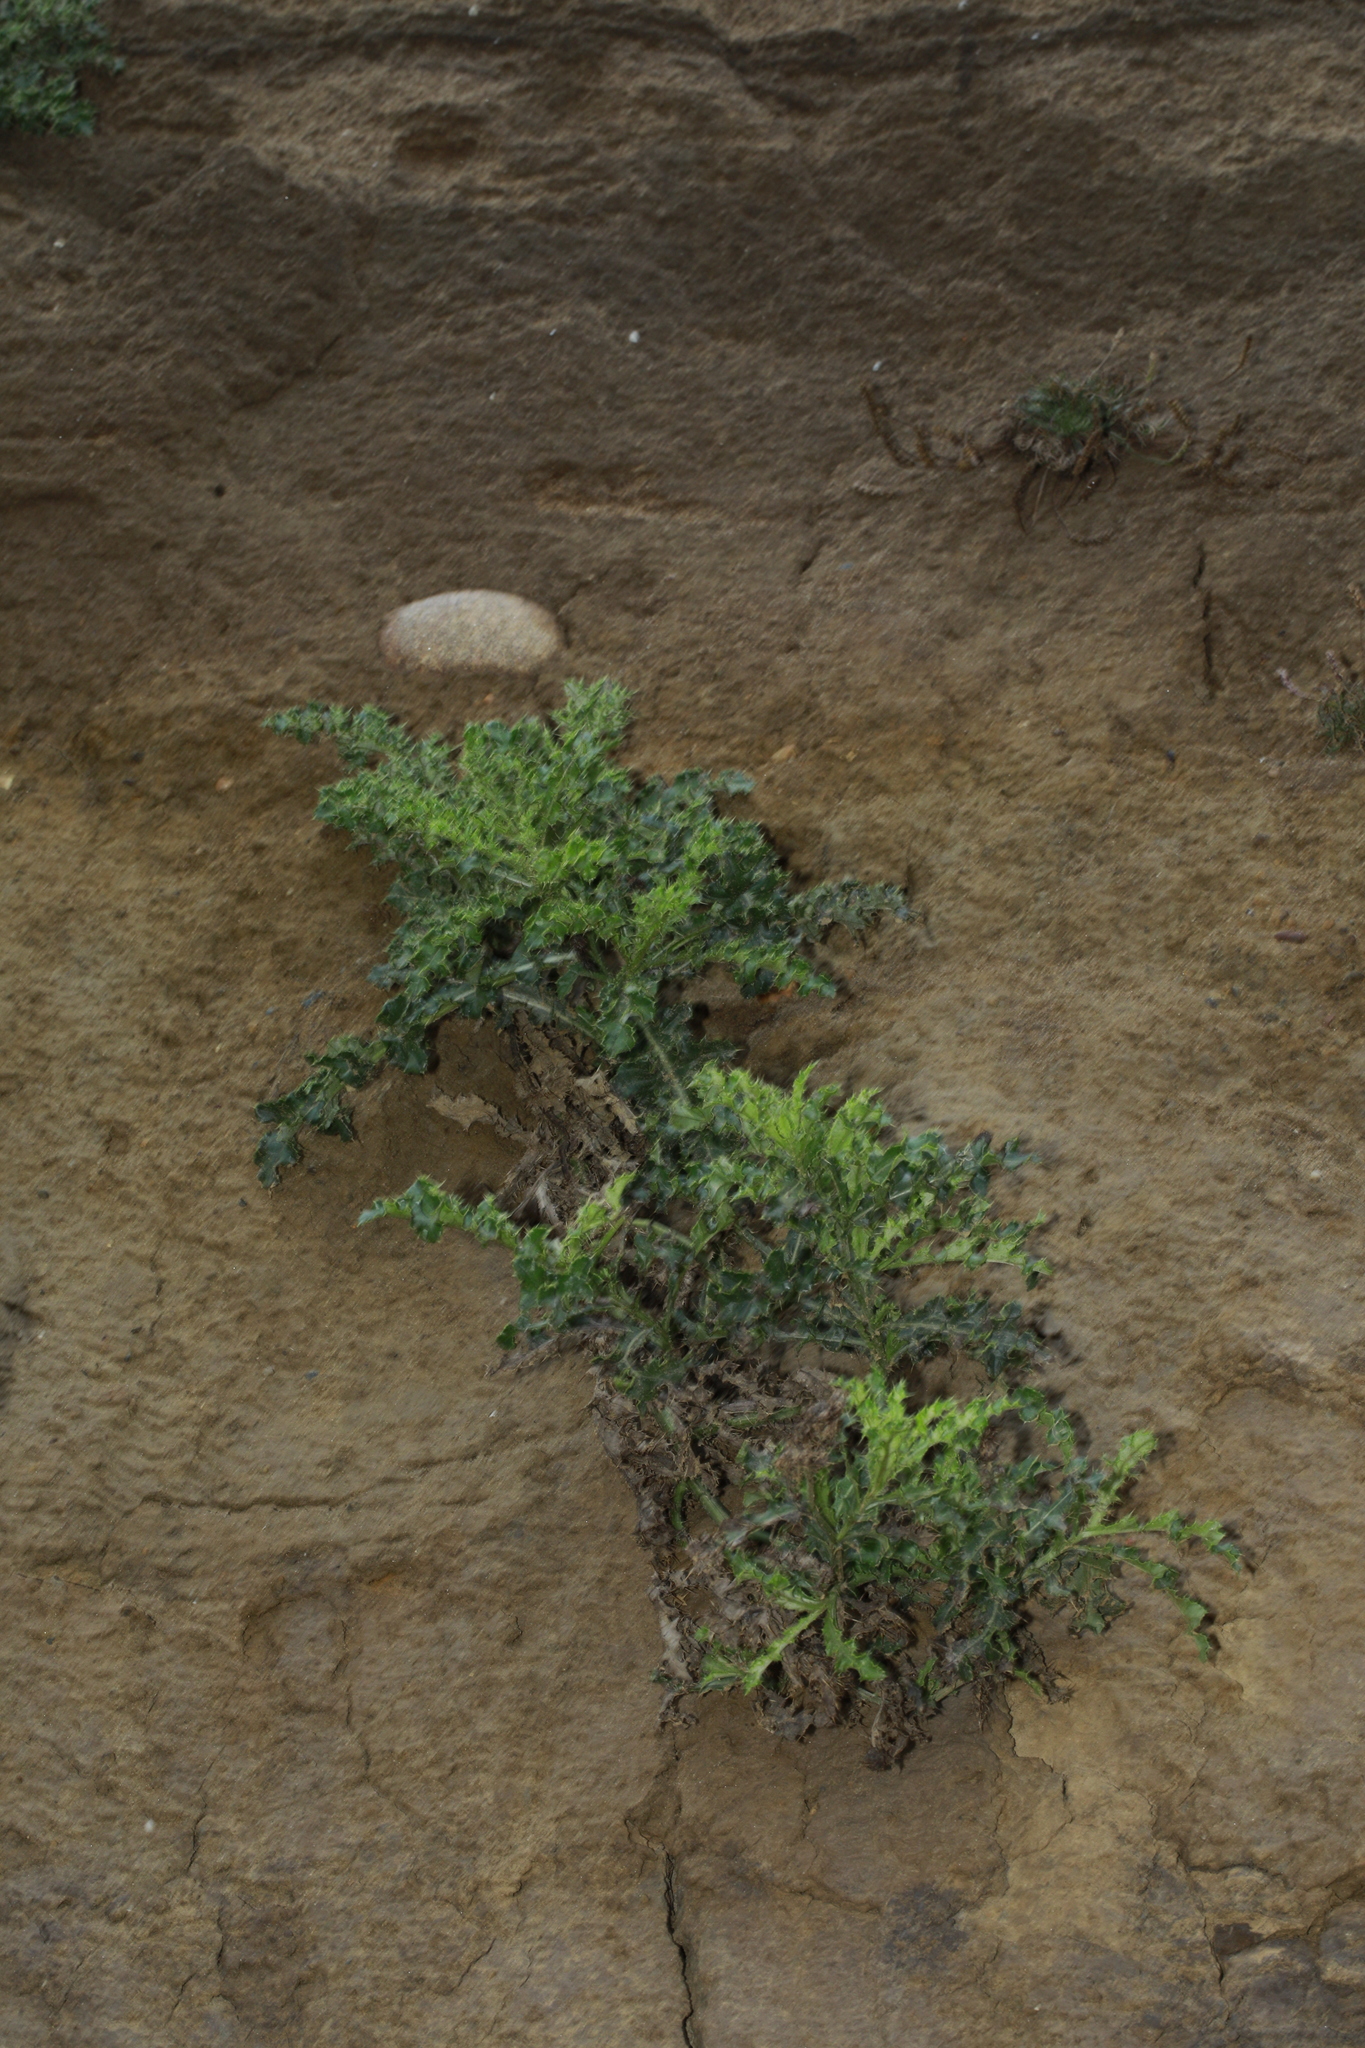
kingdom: Plantae
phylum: Tracheophyta
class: Magnoliopsida
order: Asterales
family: Asteraceae
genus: Cirsium
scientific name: Cirsium arvense
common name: Creeping thistle
